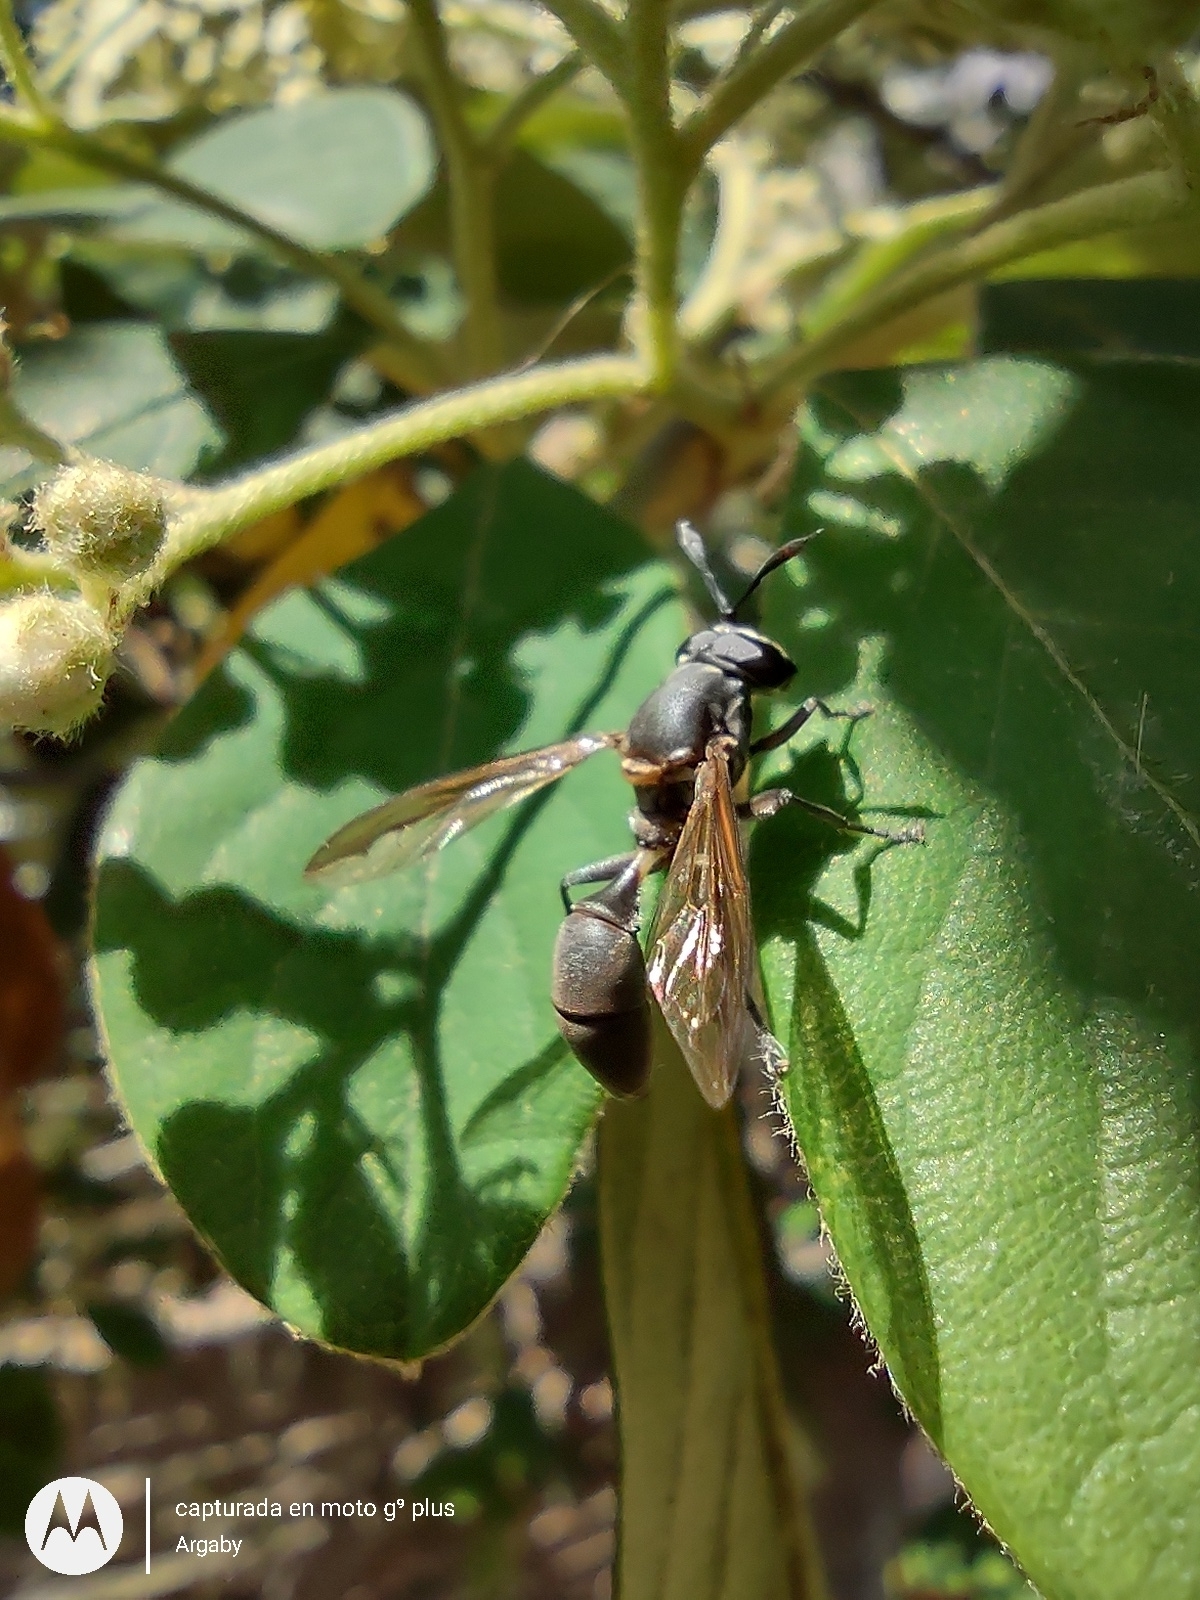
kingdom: Animalia
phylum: Arthropoda
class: Insecta
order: Diptera
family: Syrphidae
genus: Sphiximorpha
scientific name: Sphiximorpha barbipes
